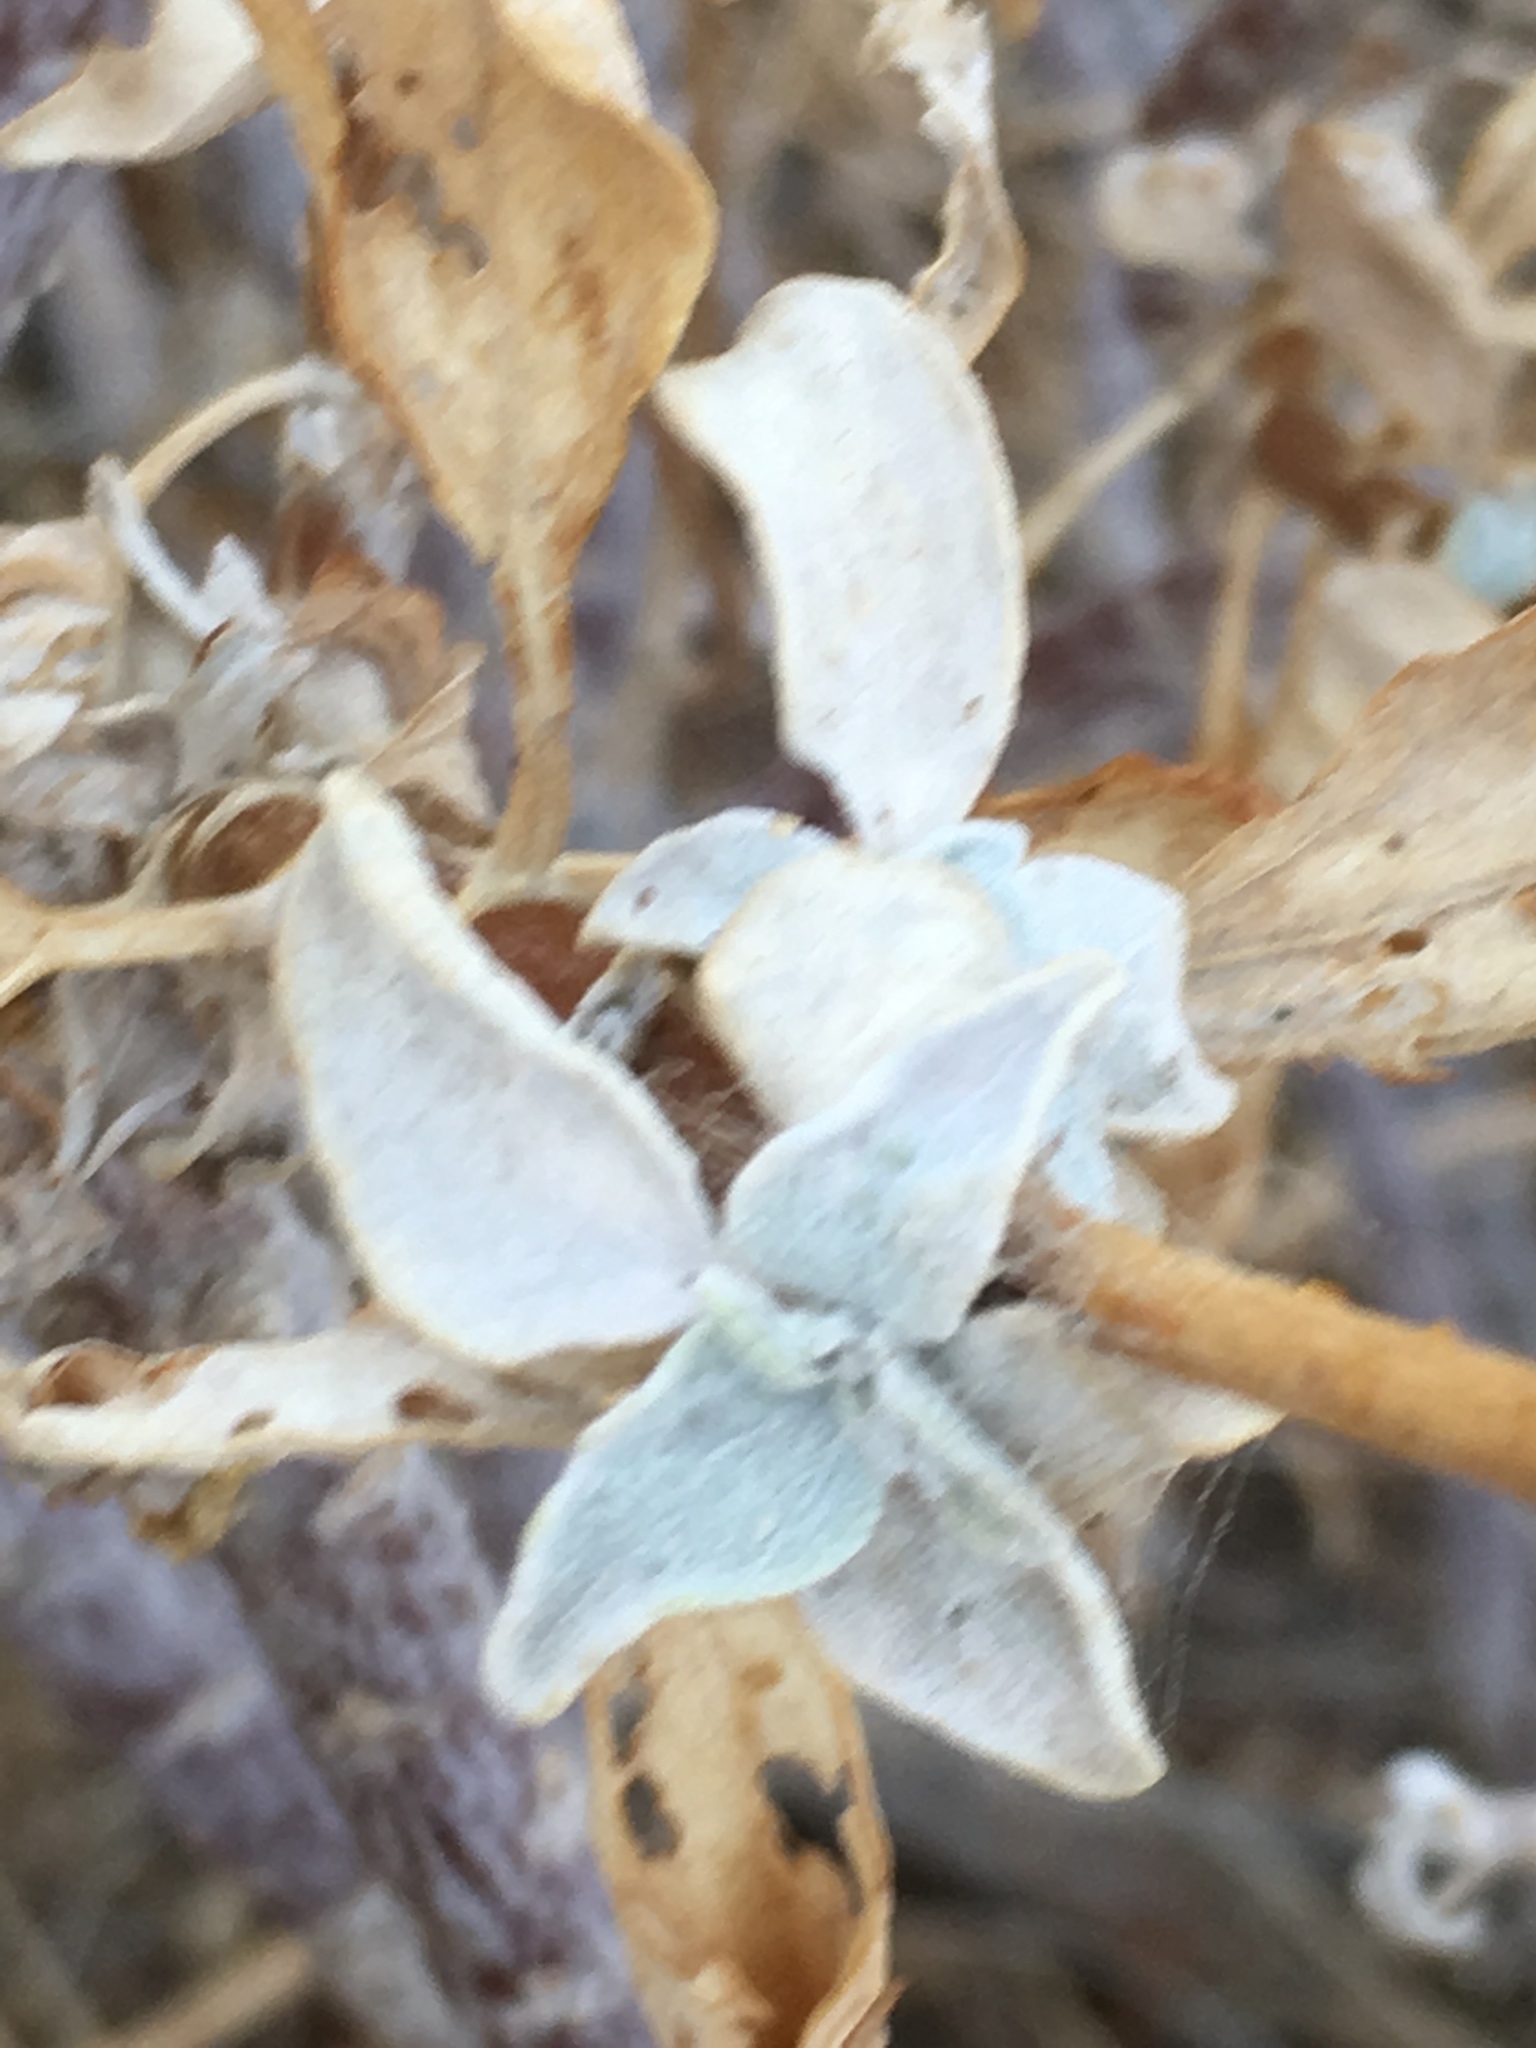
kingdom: Plantae
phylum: Tracheophyta
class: Magnoliopsida
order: Asterales
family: Asteraceae
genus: Encelia
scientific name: Encelia farinosa
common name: Brittlebush
